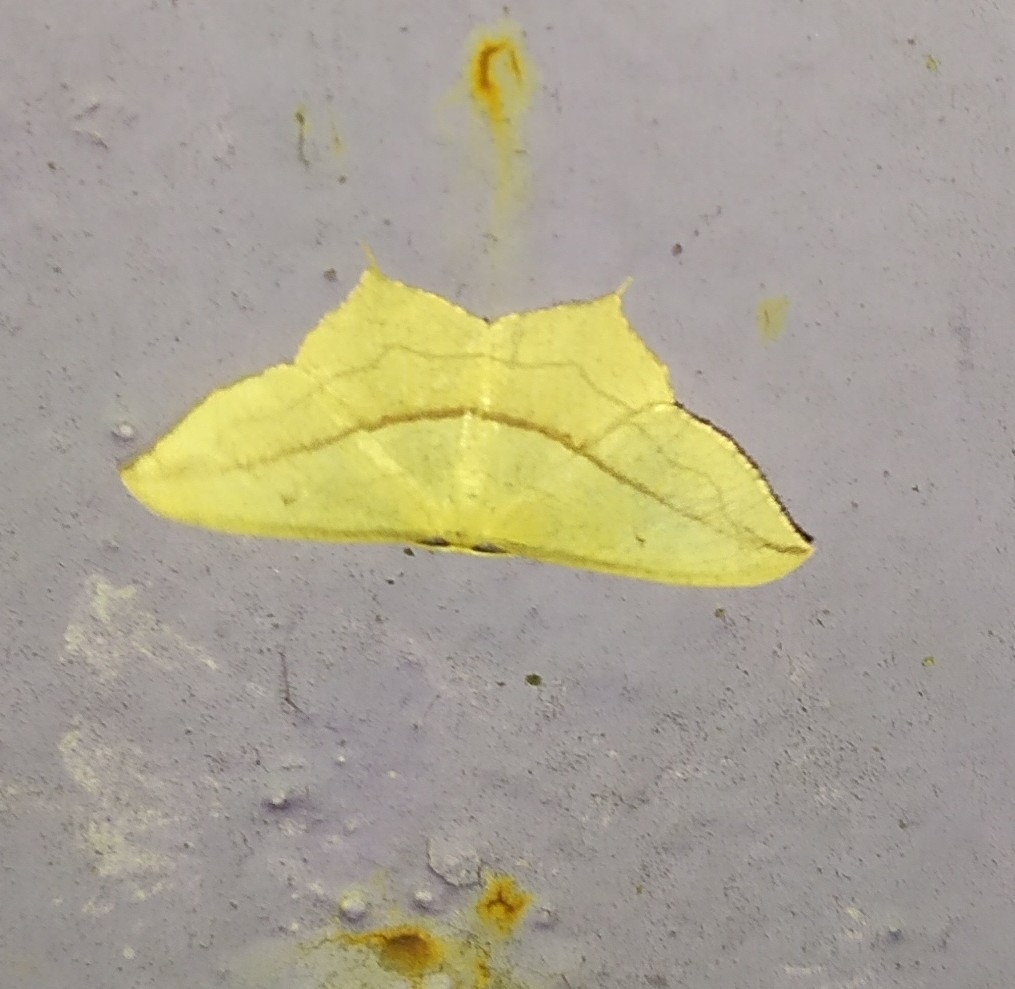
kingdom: Animalia
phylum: Arthropoda
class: Insecta
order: Lepidoptera
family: Geometridae
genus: Timandra
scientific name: Timandra comae
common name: Blood-vein
